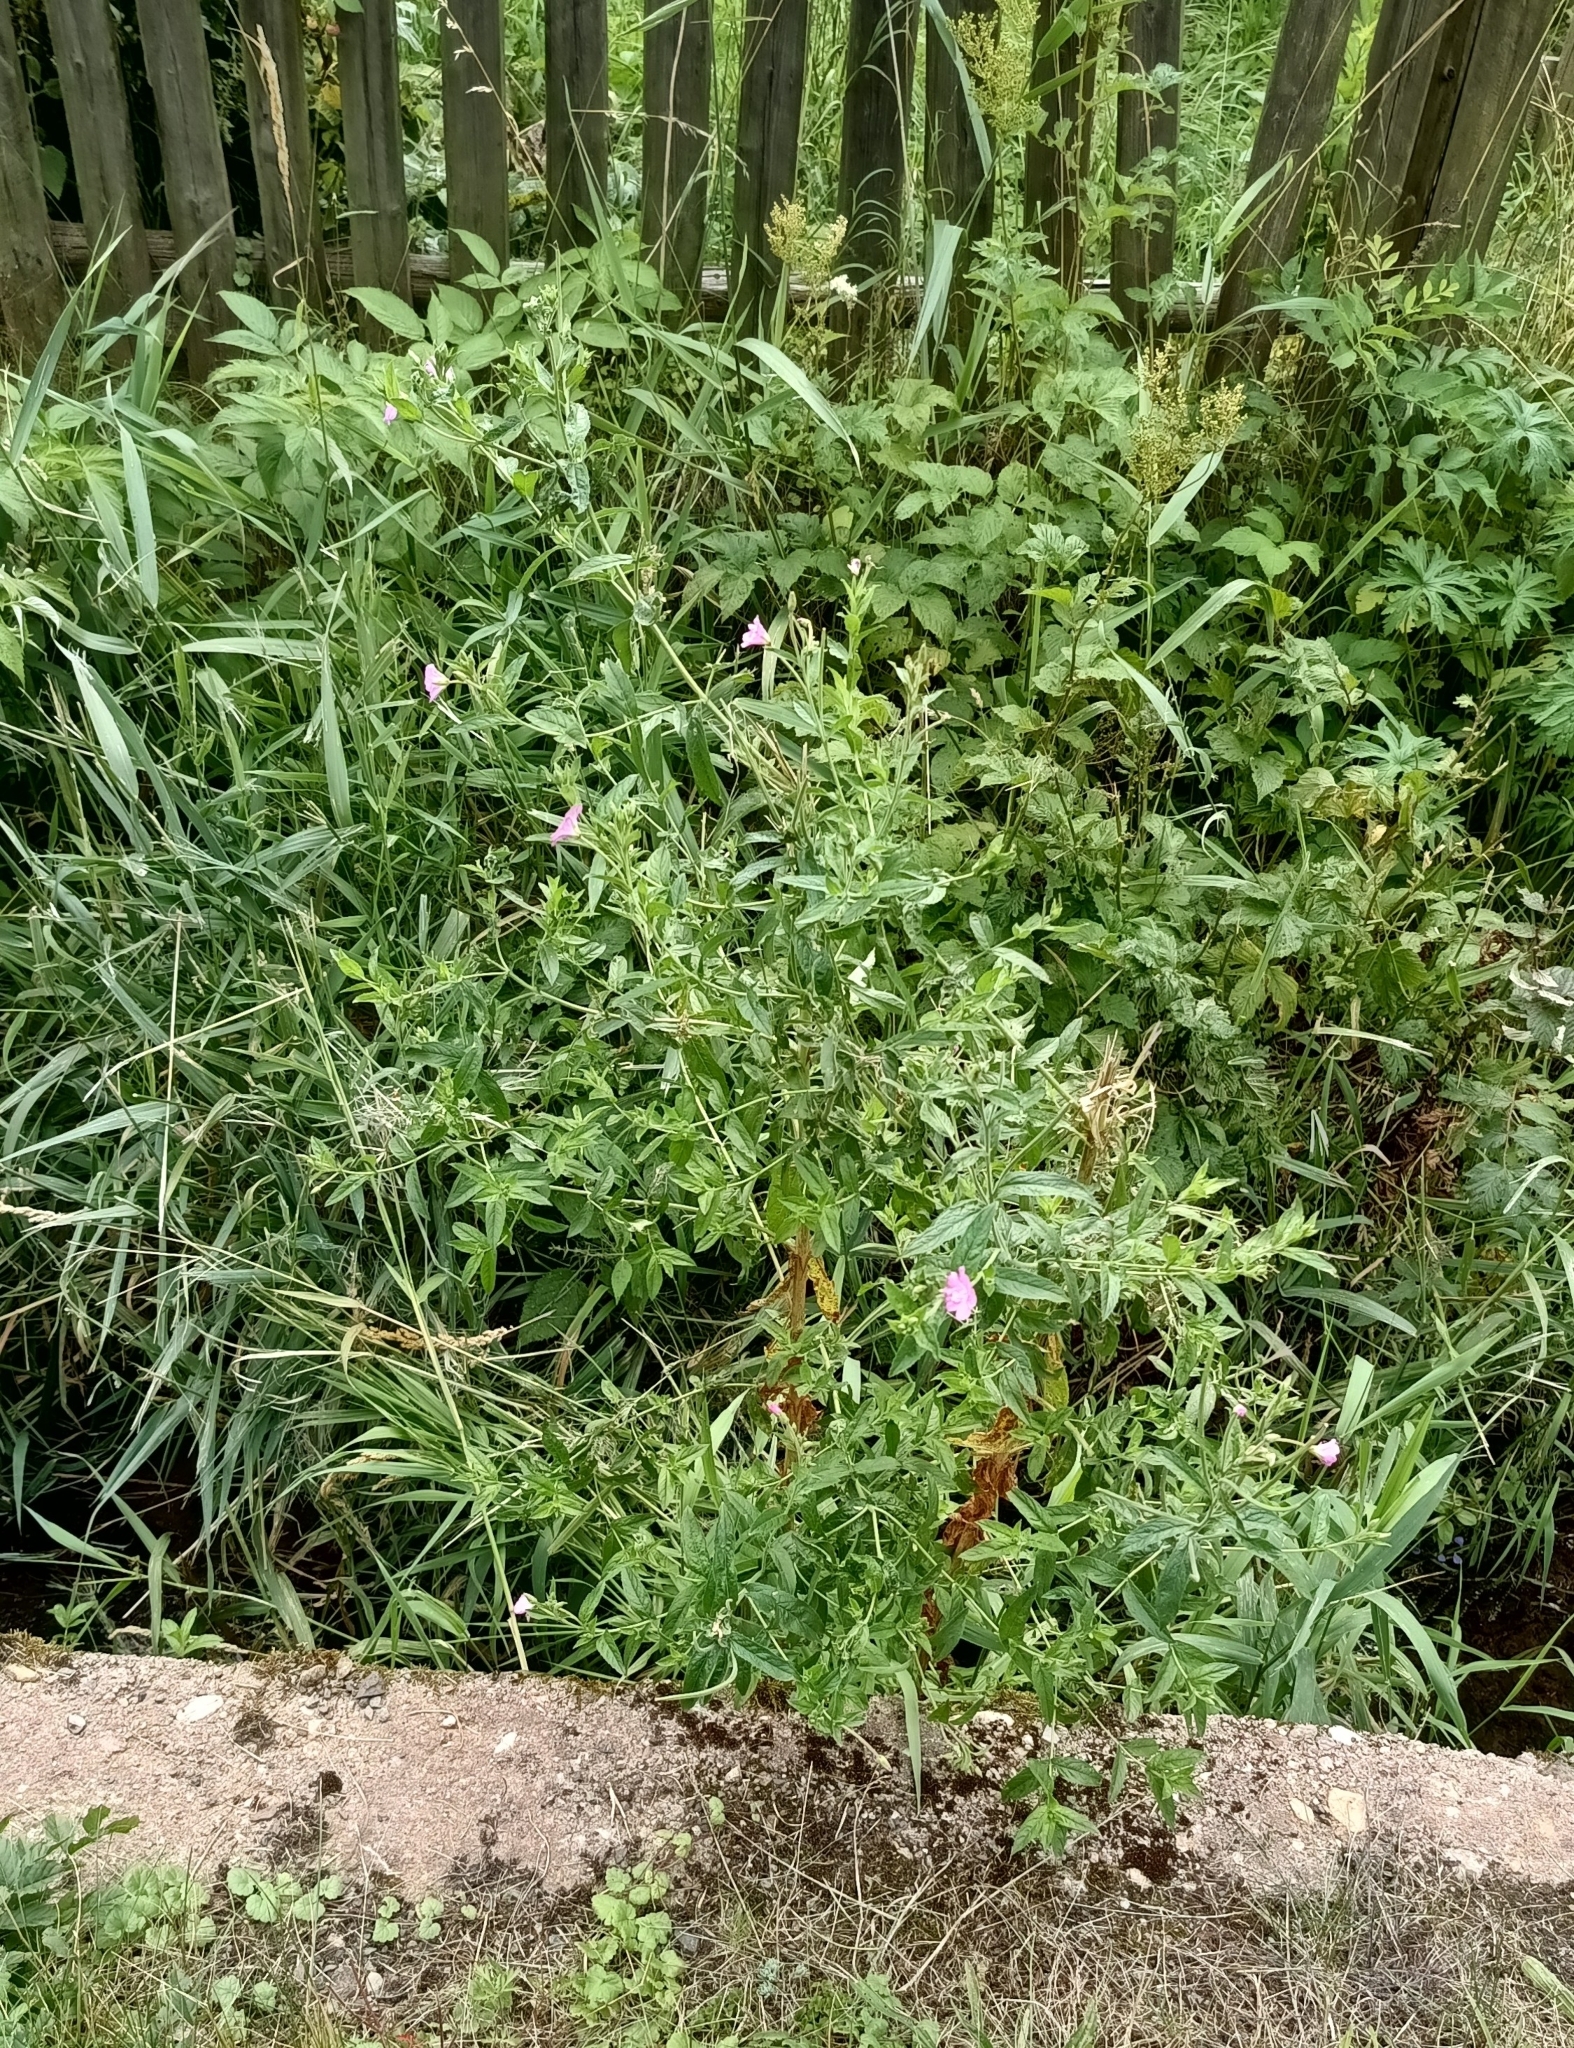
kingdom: Plantae
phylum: Tracheophyta
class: Magnoliopsida
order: Myrtales
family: Onagraceae
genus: Epilobium
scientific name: Epilobium hirsutum
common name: Great willowherb
